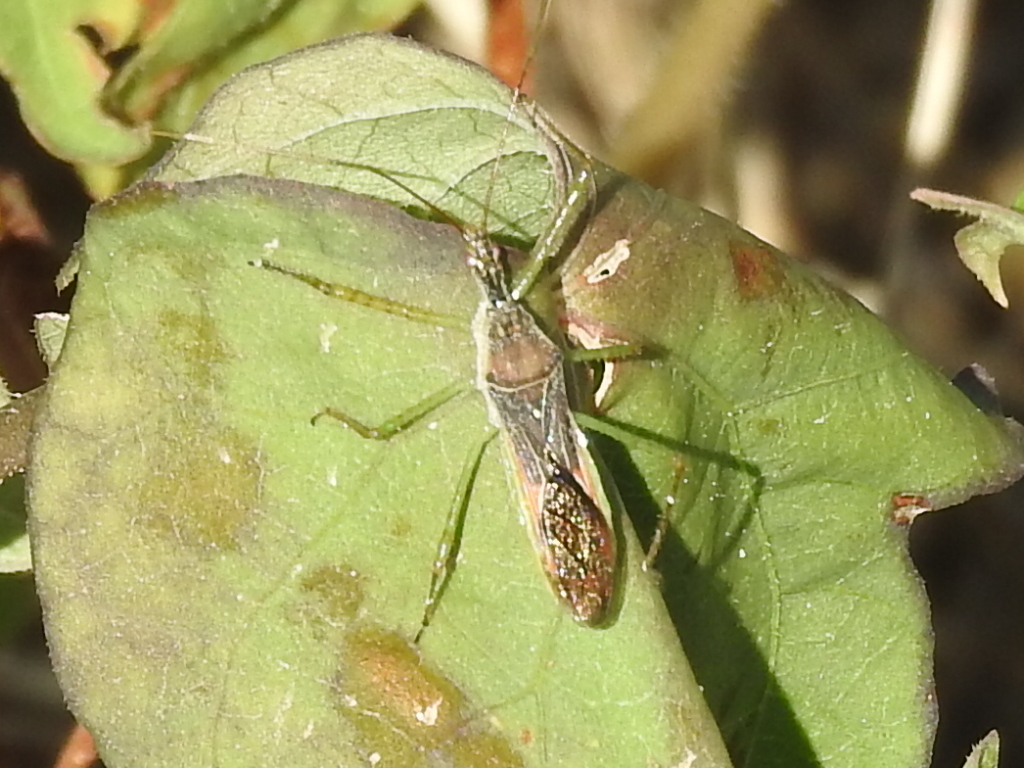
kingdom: Animalia
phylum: Arthropoda
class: Insecta
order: Hemiptera
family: Reduviidae
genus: Zelus
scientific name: Zelus renardii
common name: Assassin bug
